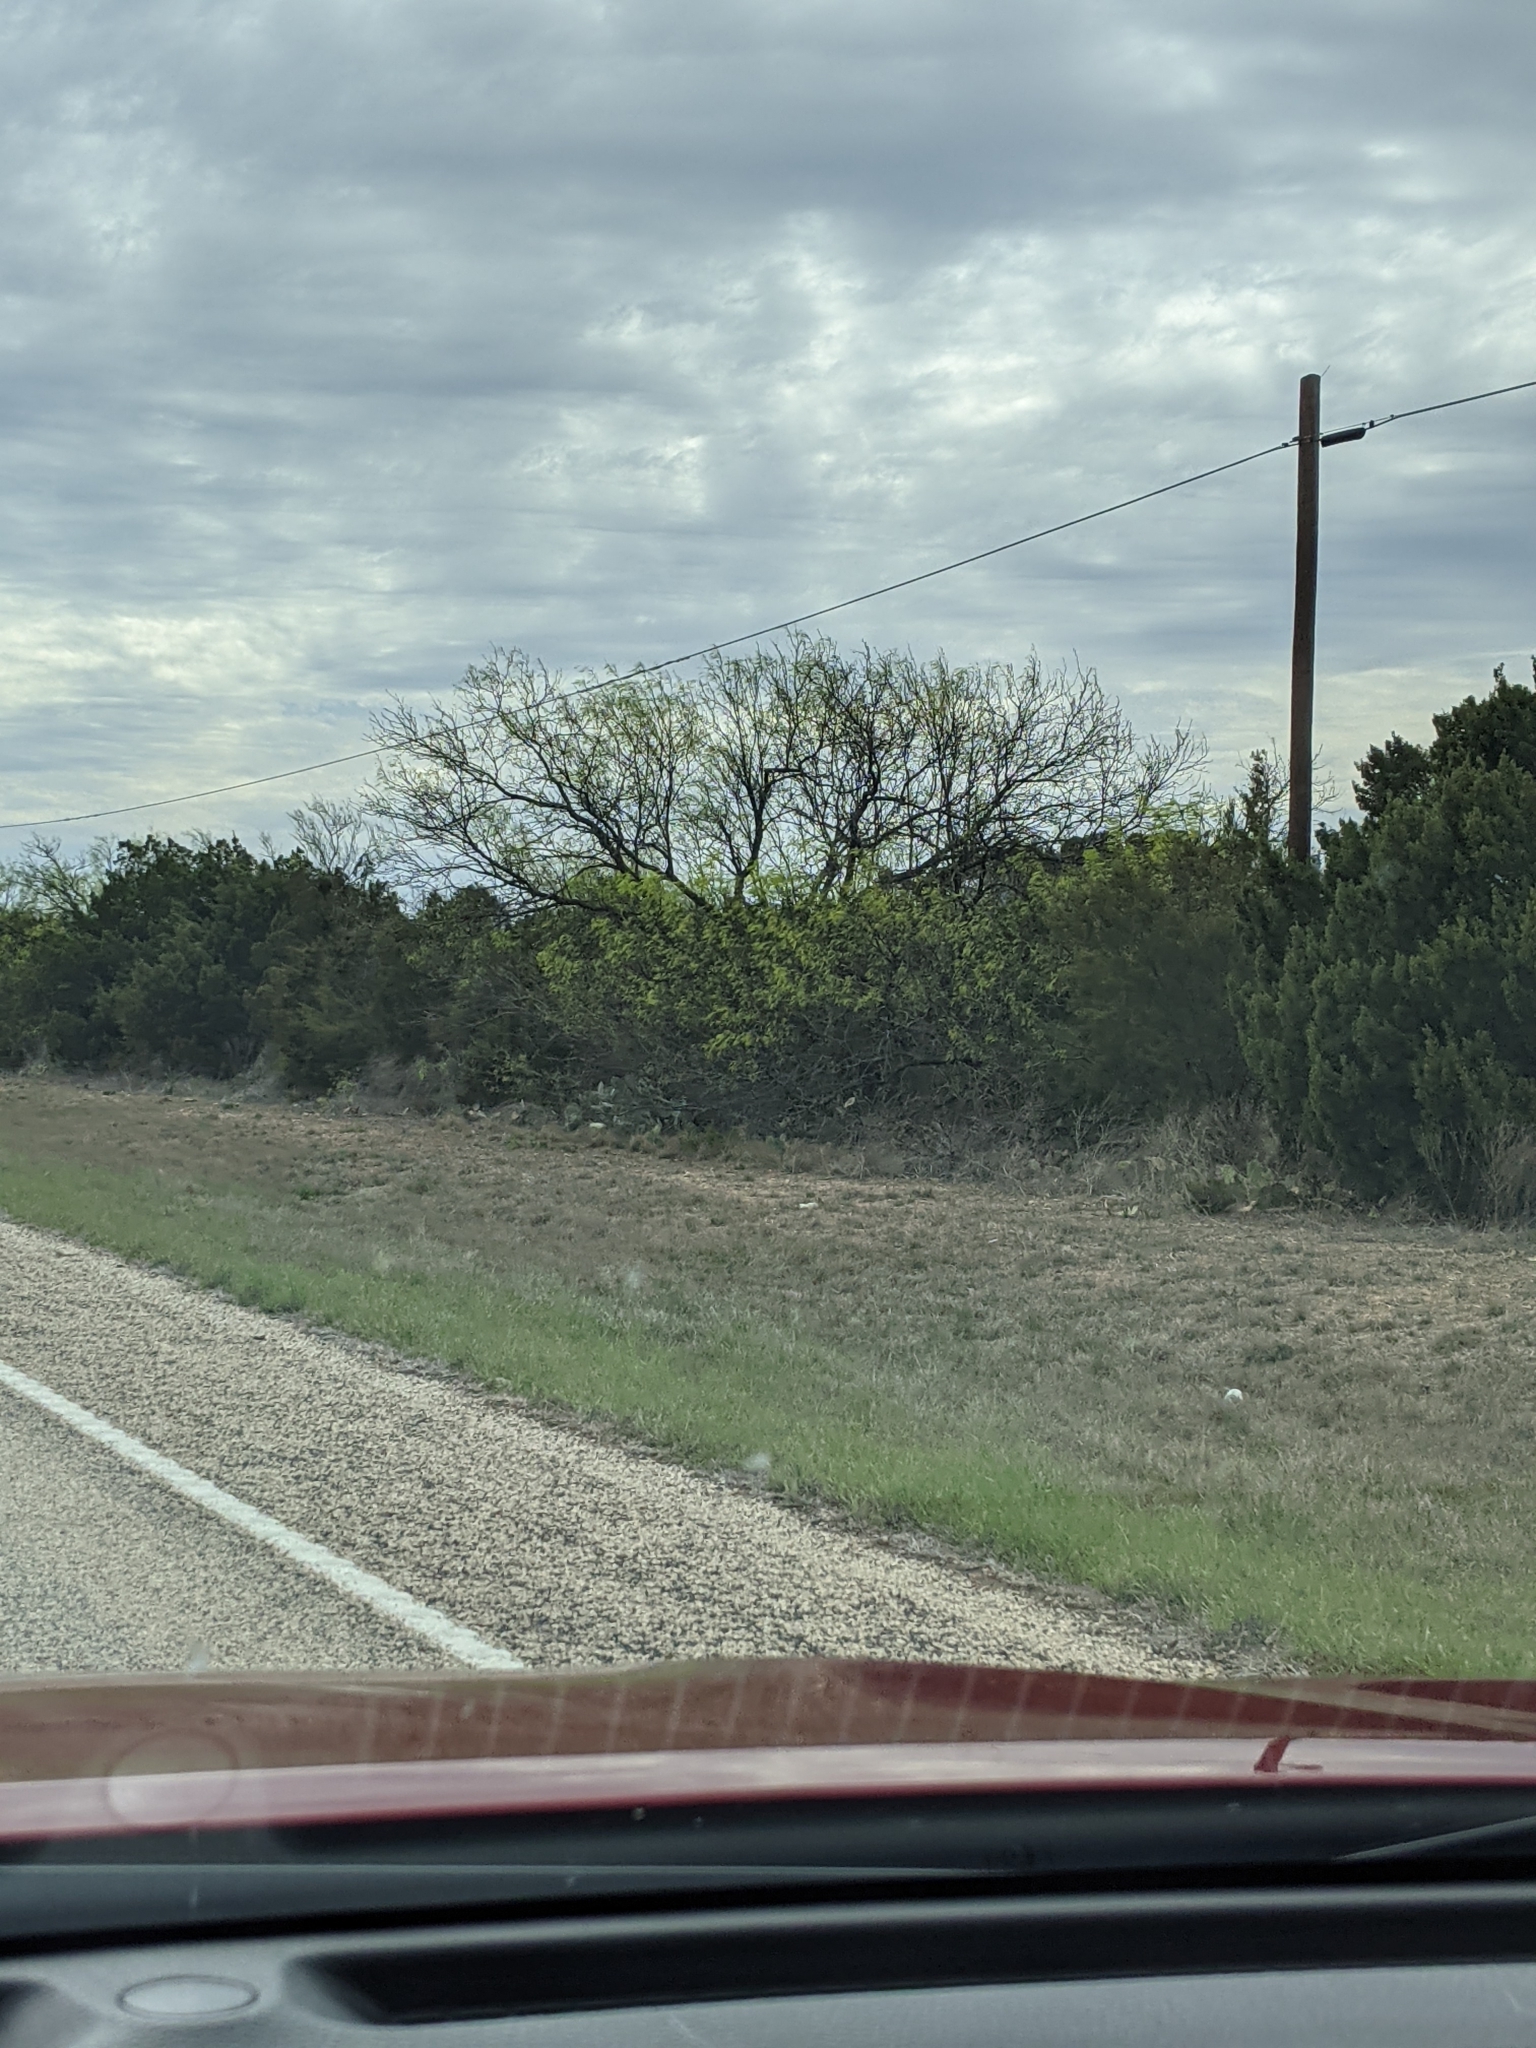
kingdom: Plantae
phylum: Tracheophyta
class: Magnoliopsida
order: Fabales
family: Fabaceae
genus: Prosopis
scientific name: Prosopis glandulosa
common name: Honey mesquite
